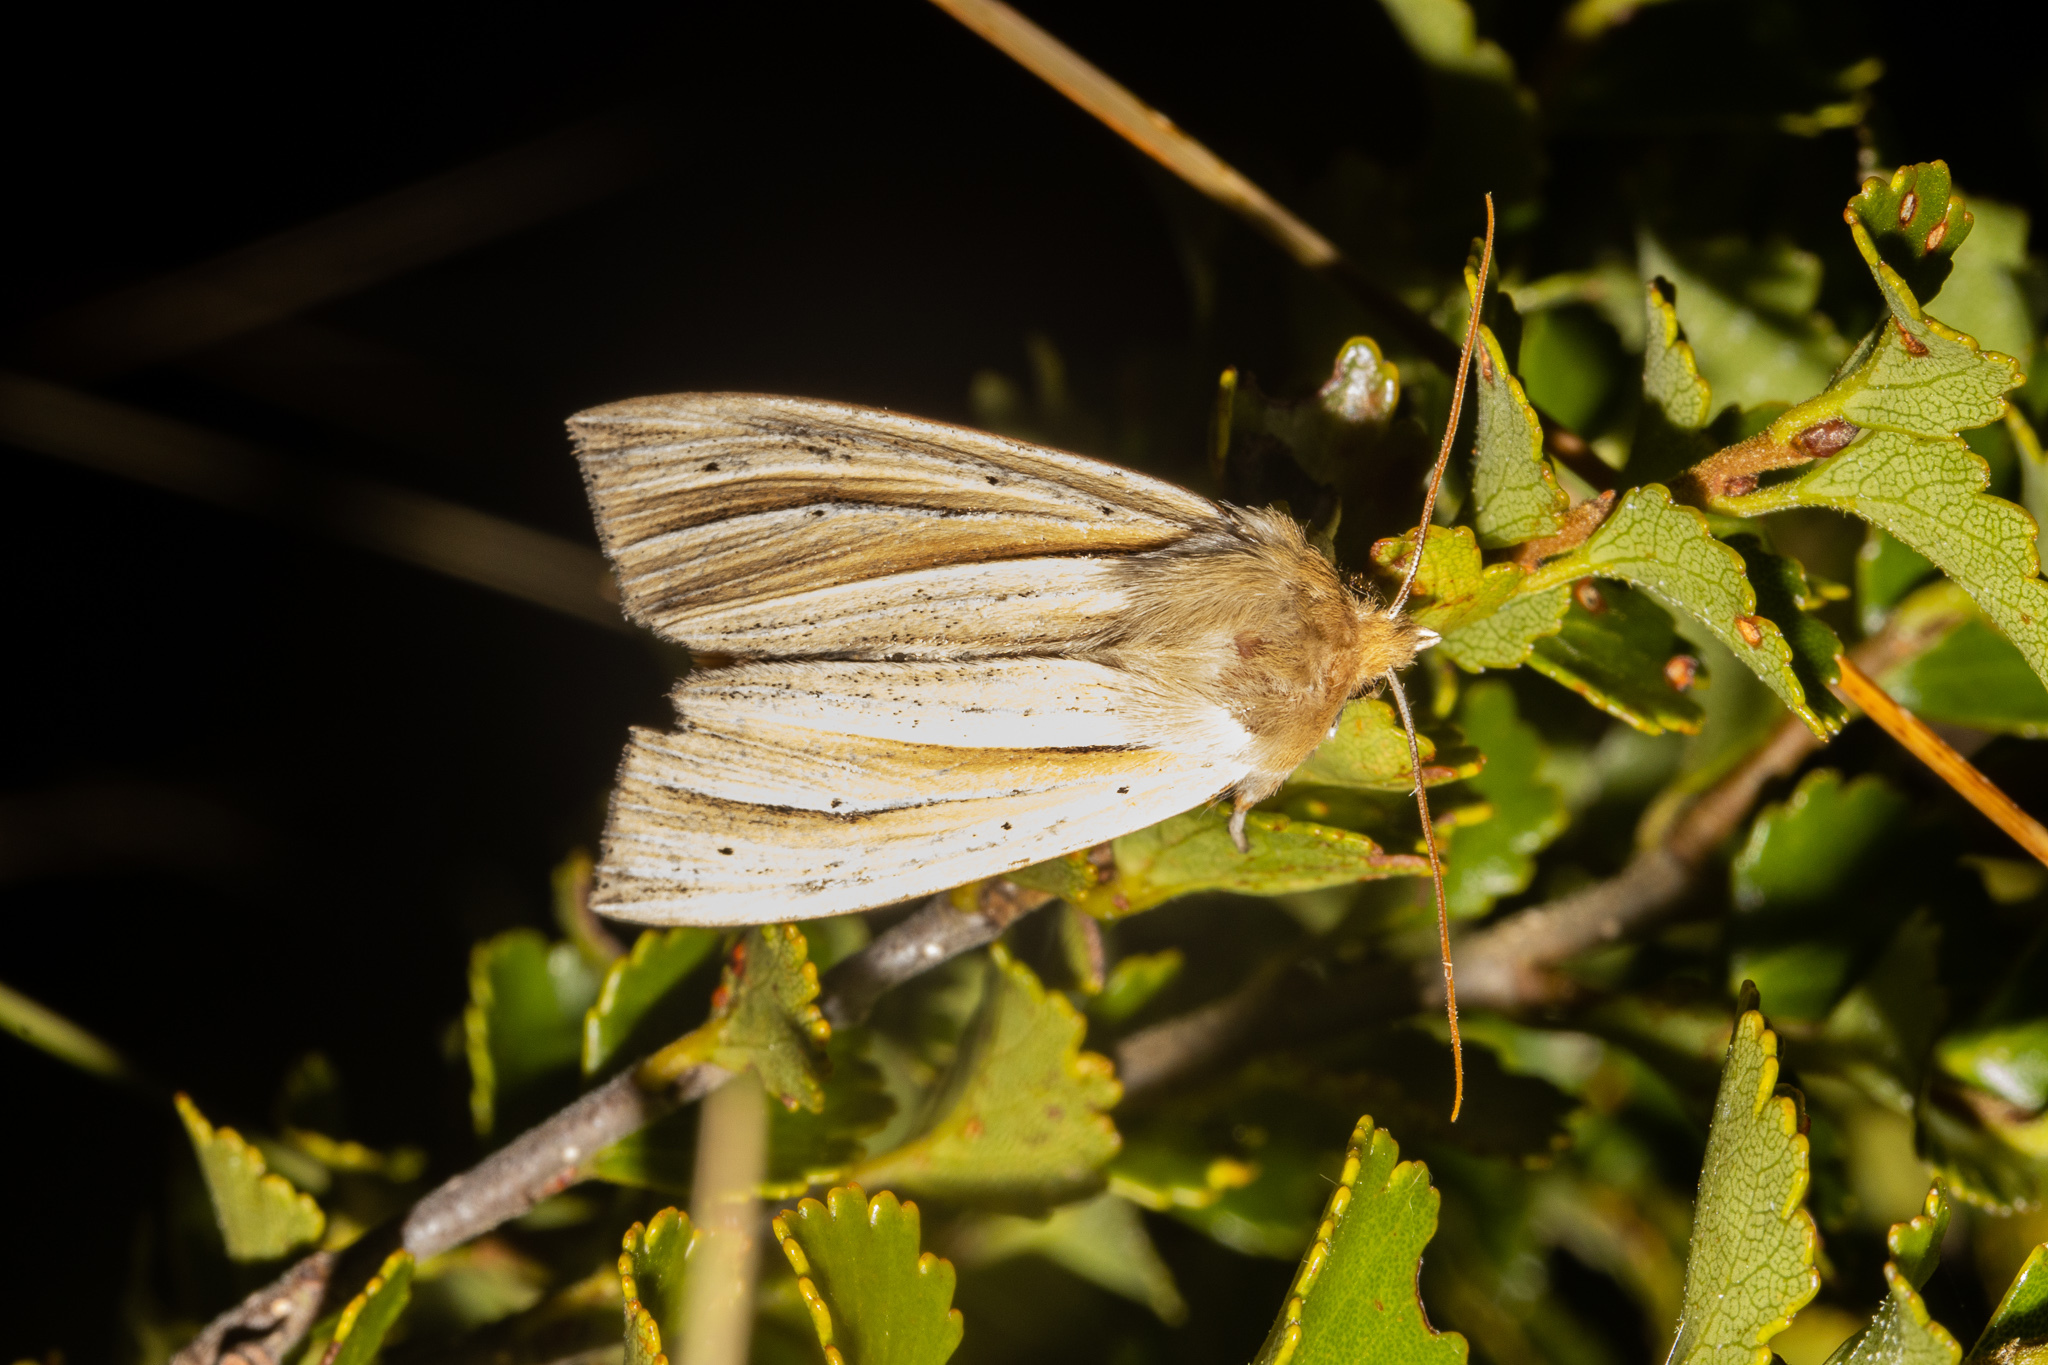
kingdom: Animalia
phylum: Arthropoda
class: Insecta
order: Lepidoptera
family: Noctuidae
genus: Ichneutica
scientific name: Ichneutica sulcana
